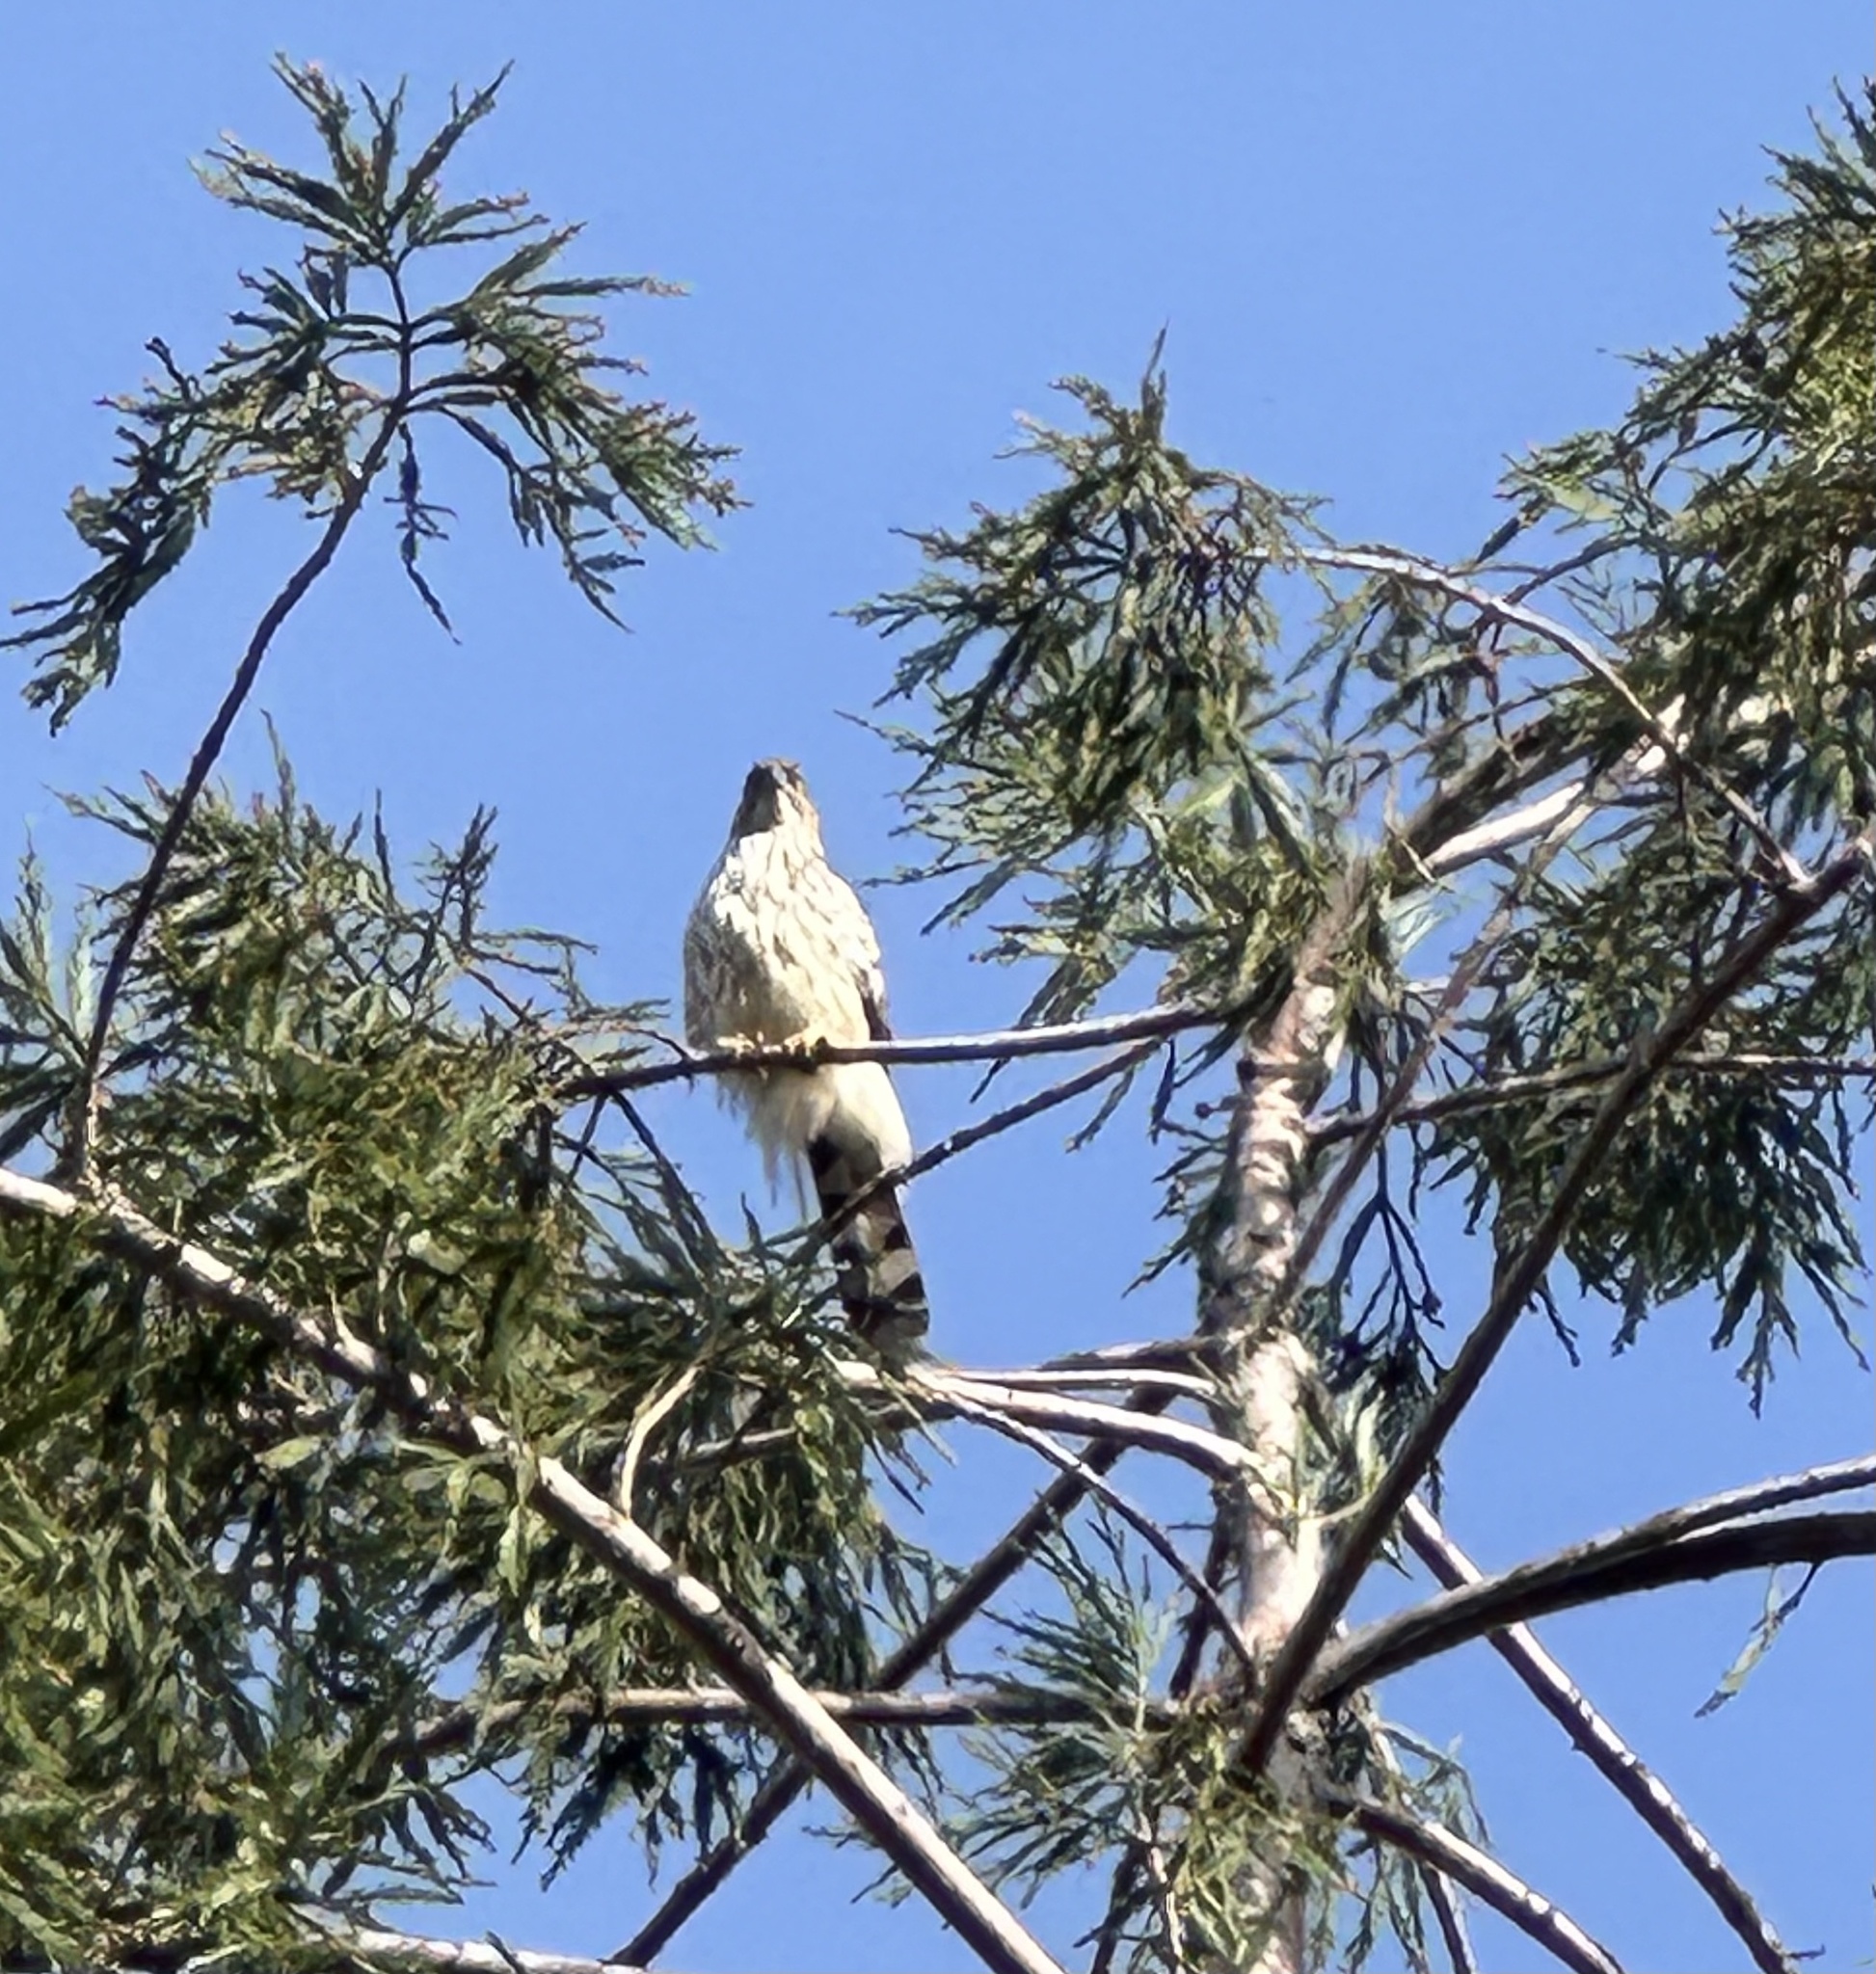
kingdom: Animalia
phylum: Chordata
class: Aves
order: Accipitriformes
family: Accipitridae
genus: Accipiter
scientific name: Accipiter cooperii
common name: Cooper's hawk
